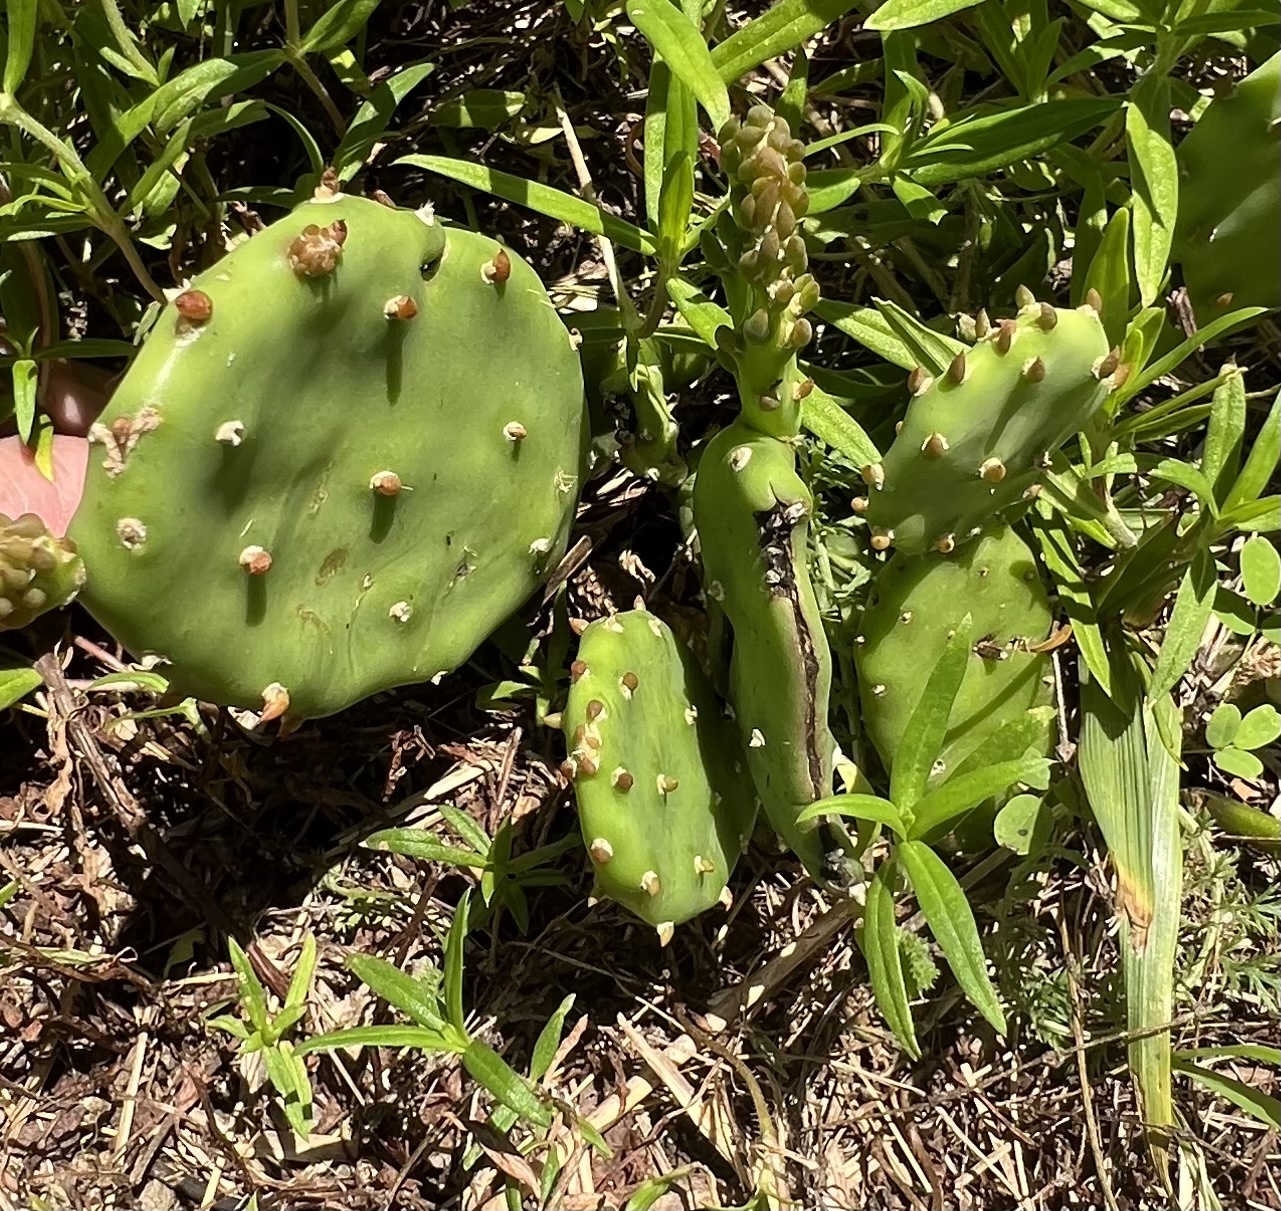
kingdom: Plantae
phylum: Tracheophyta
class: Magnoliopsida
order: Caryophyllales
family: Cactaceae
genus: Opuntia
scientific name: Opuntia humifusa
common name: Eastern prickly-pear
